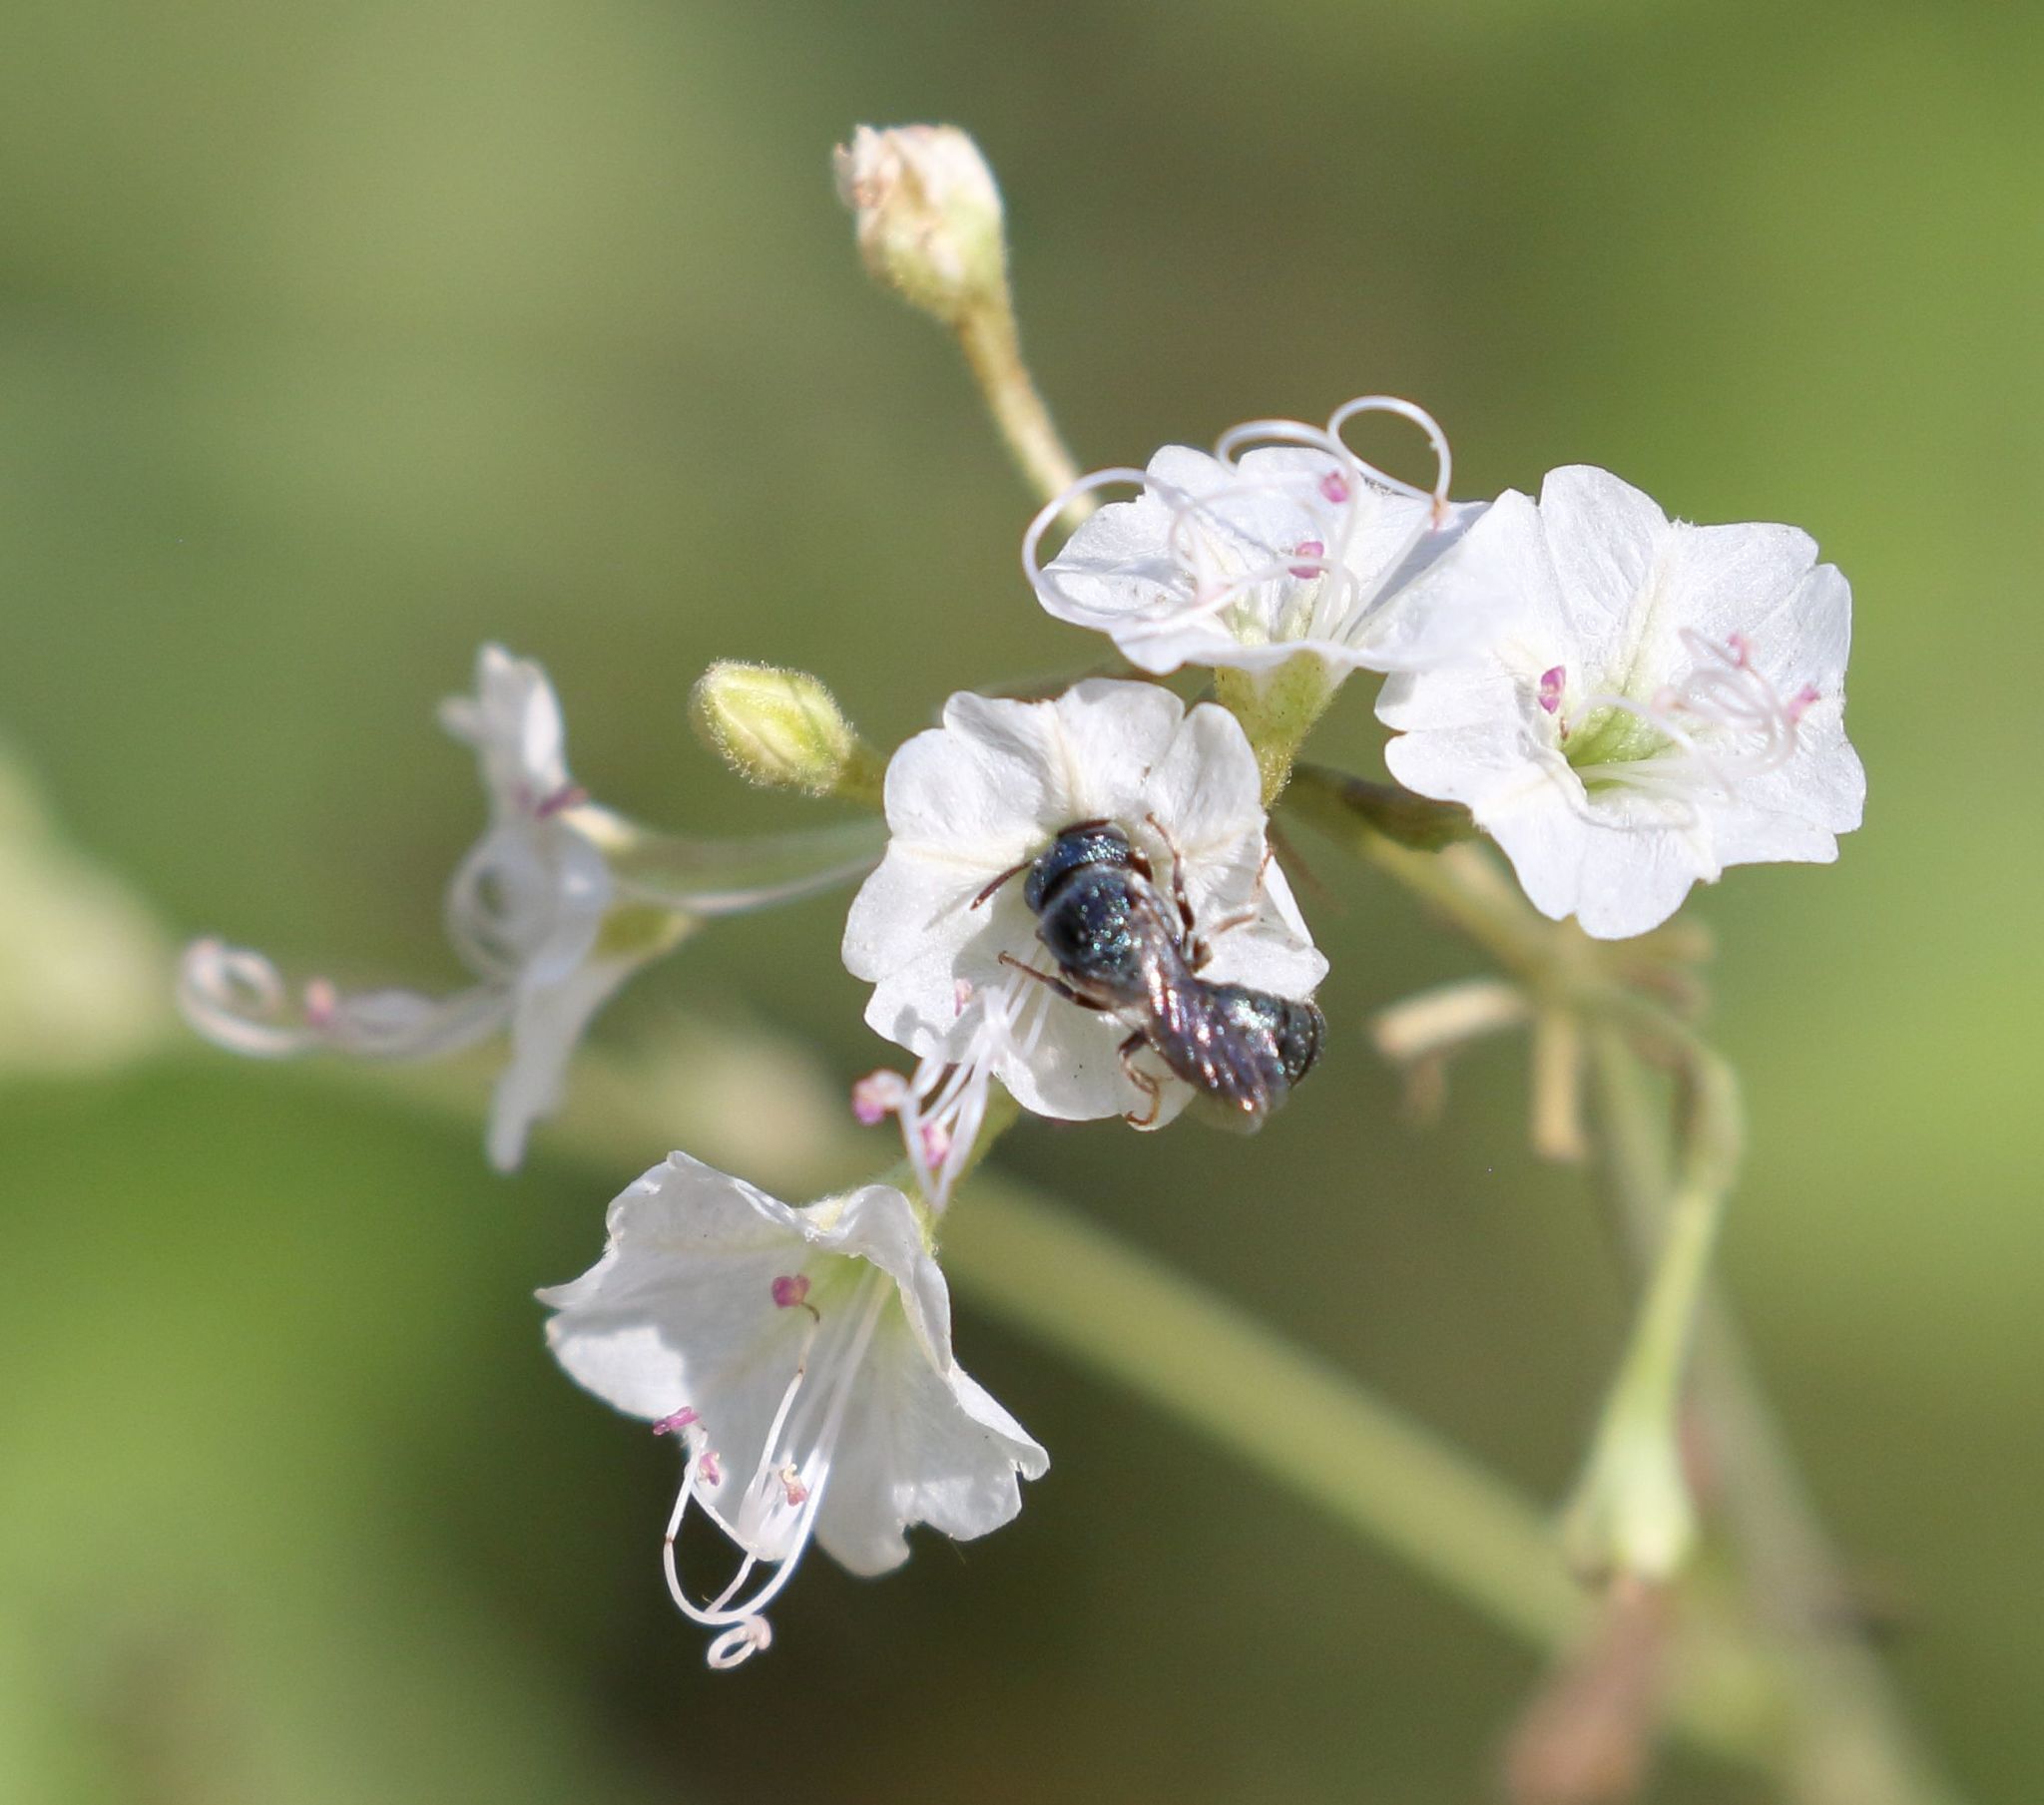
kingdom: Animalia
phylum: Arthropoda
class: Insecta
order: Hymenoptera
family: Apidae
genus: Ceratina
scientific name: Ceratina inermis
